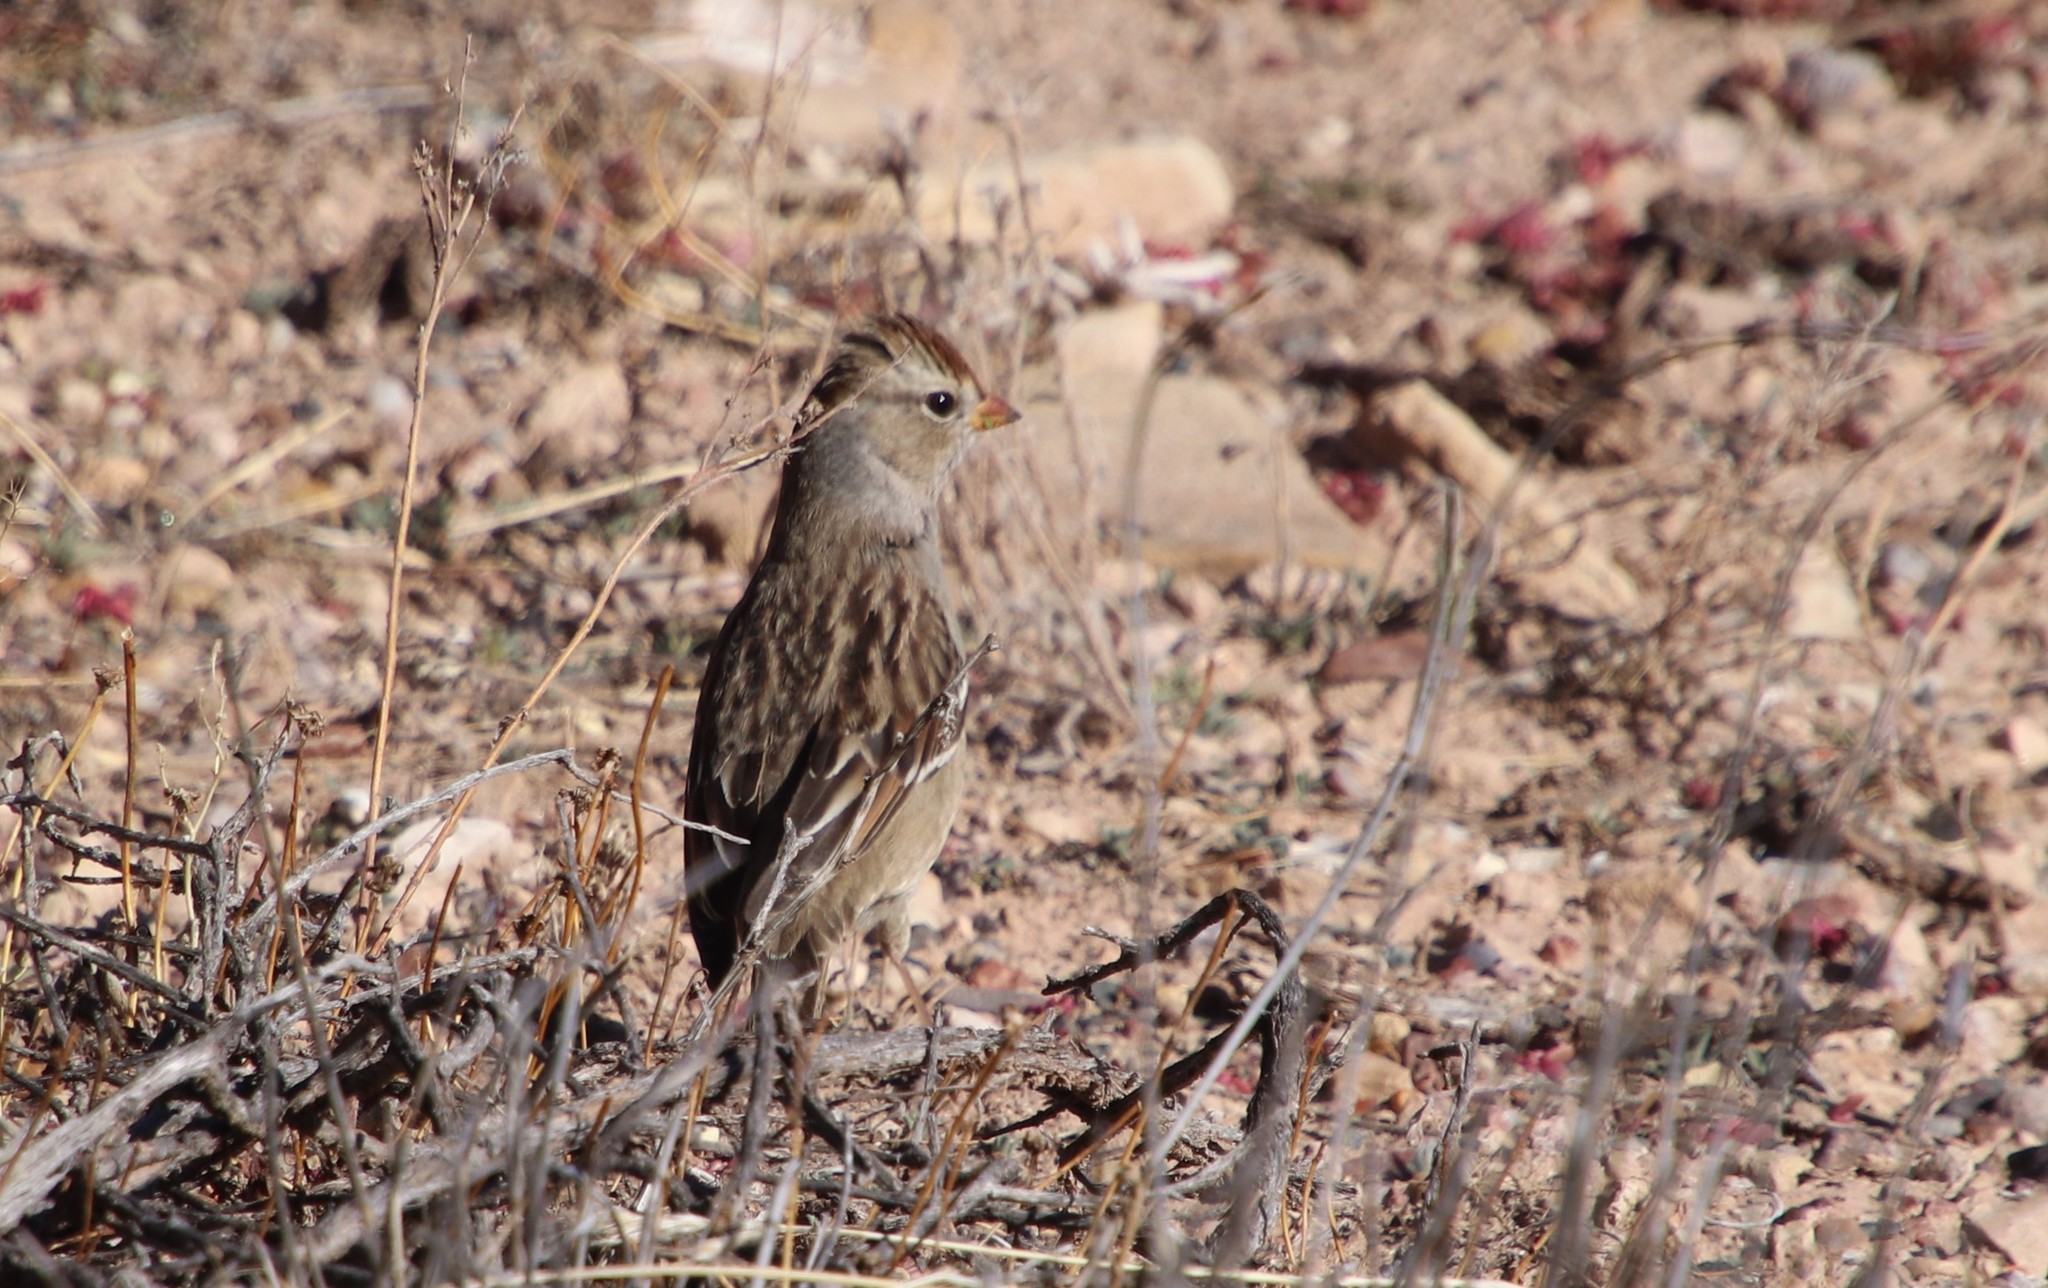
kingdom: Animalia
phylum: Chordata
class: Aves
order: Passeriformes
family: Passerellidae
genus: Zonotrichia
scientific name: Zonotrichia leucophrys
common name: White-crowned sparrow
